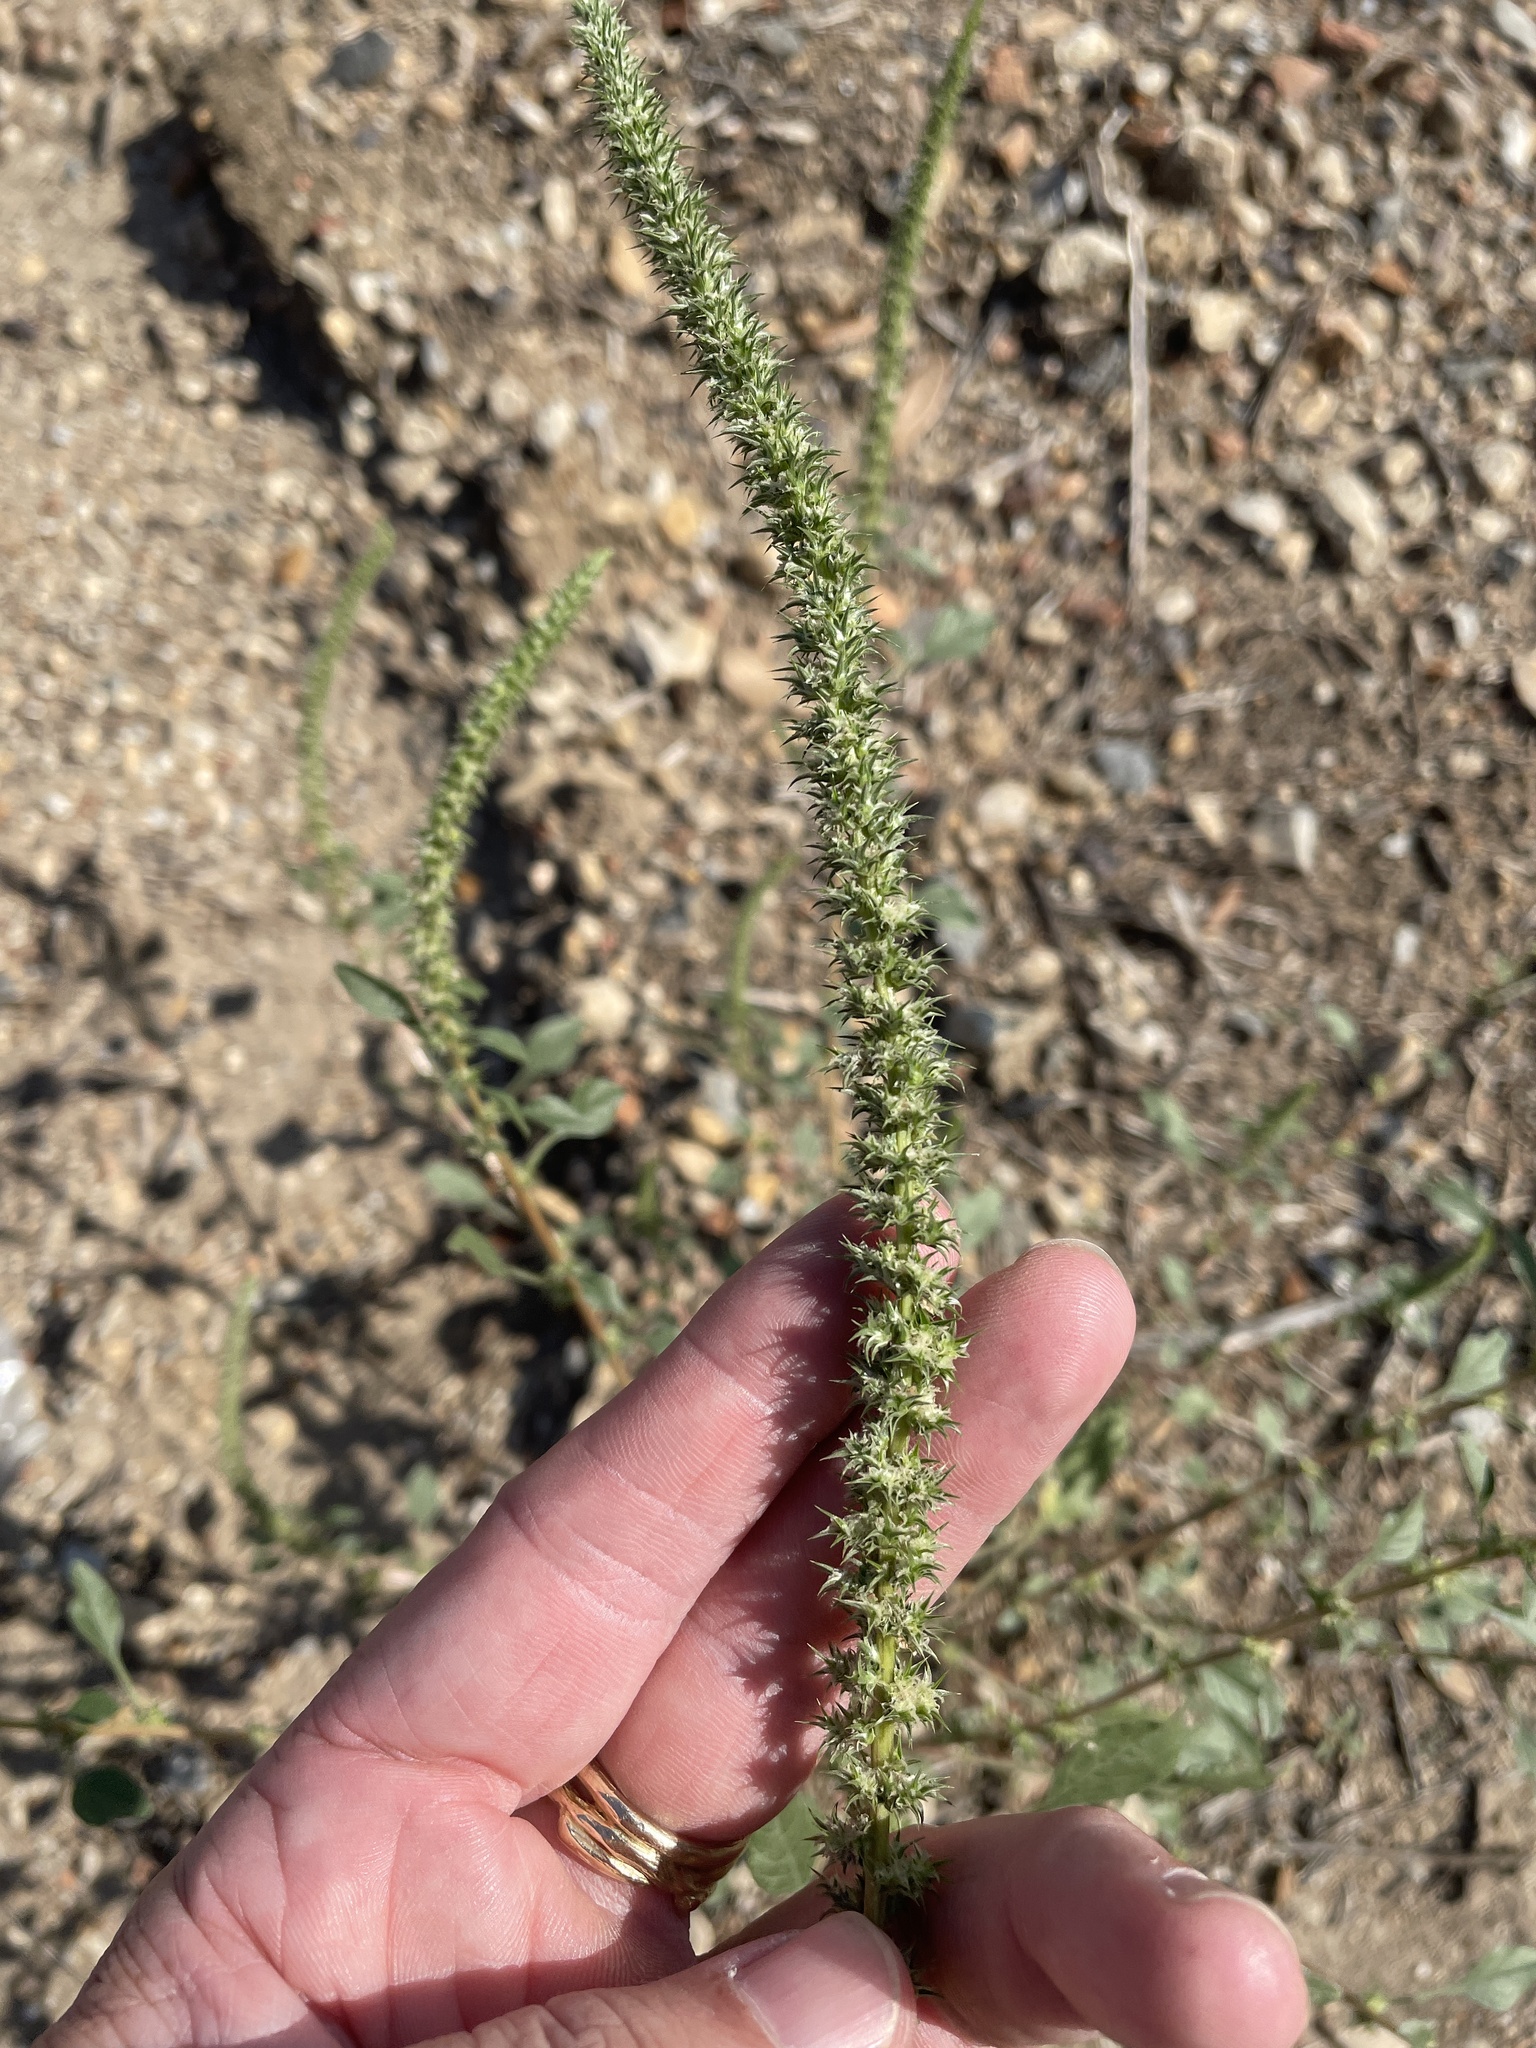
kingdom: Plantae
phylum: Tracheophyta
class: Magnoliopsida
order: Caryophyllales
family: Amaranthaceae
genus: Amaranthus
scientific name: Amaranthus palmeri
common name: Dioecious amaranth
